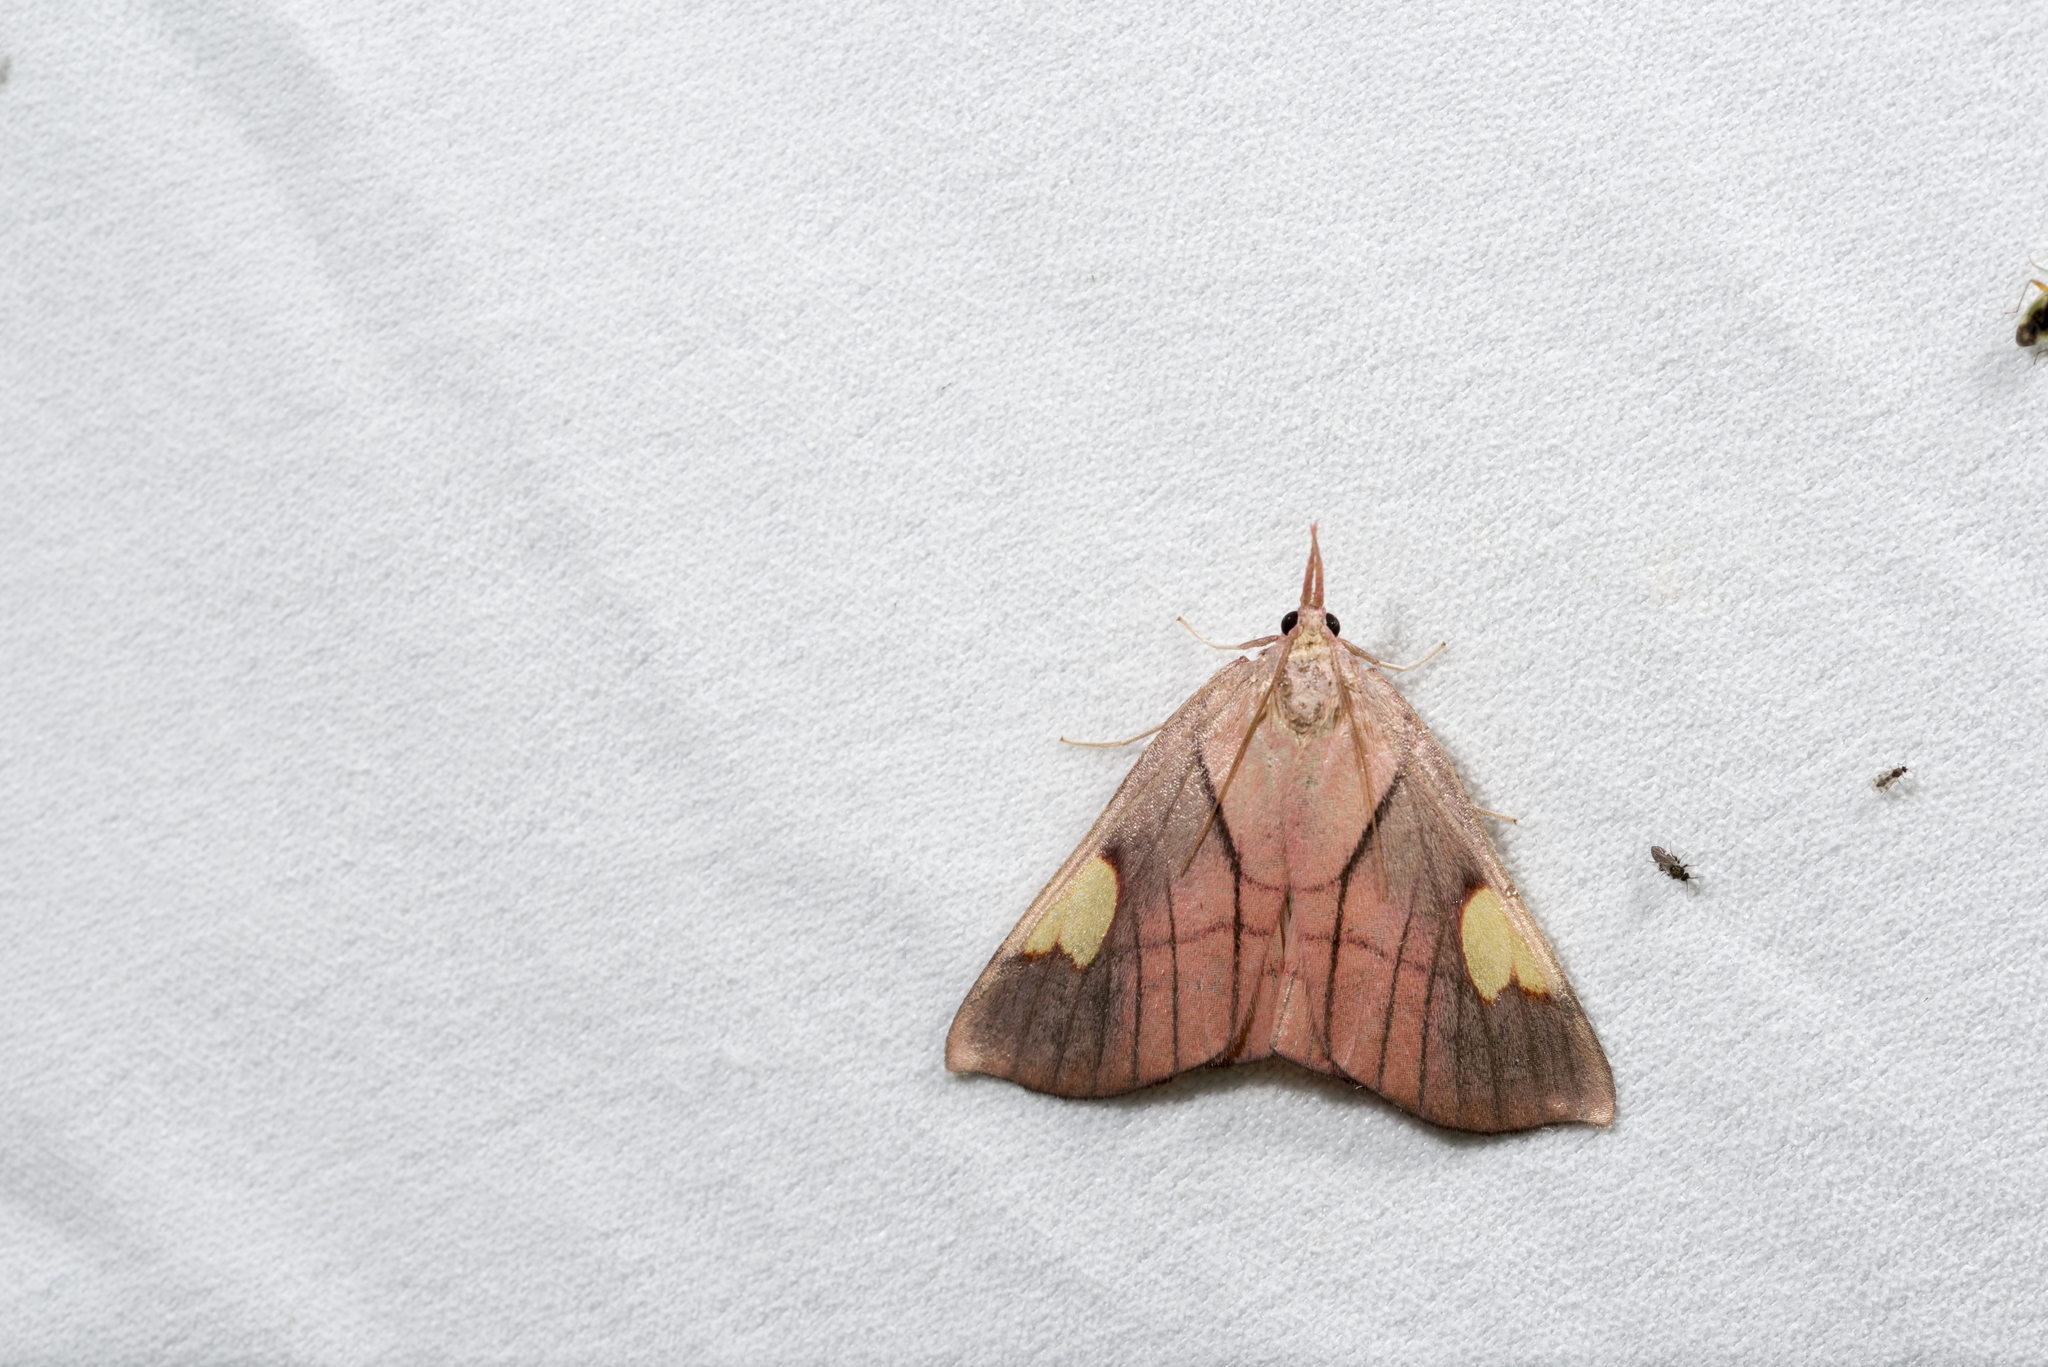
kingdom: Animalia
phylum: Arthropoda
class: Insecta
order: Lepidoptera
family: Pyralidae
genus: Orybina
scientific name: Orybina flaviplaga
